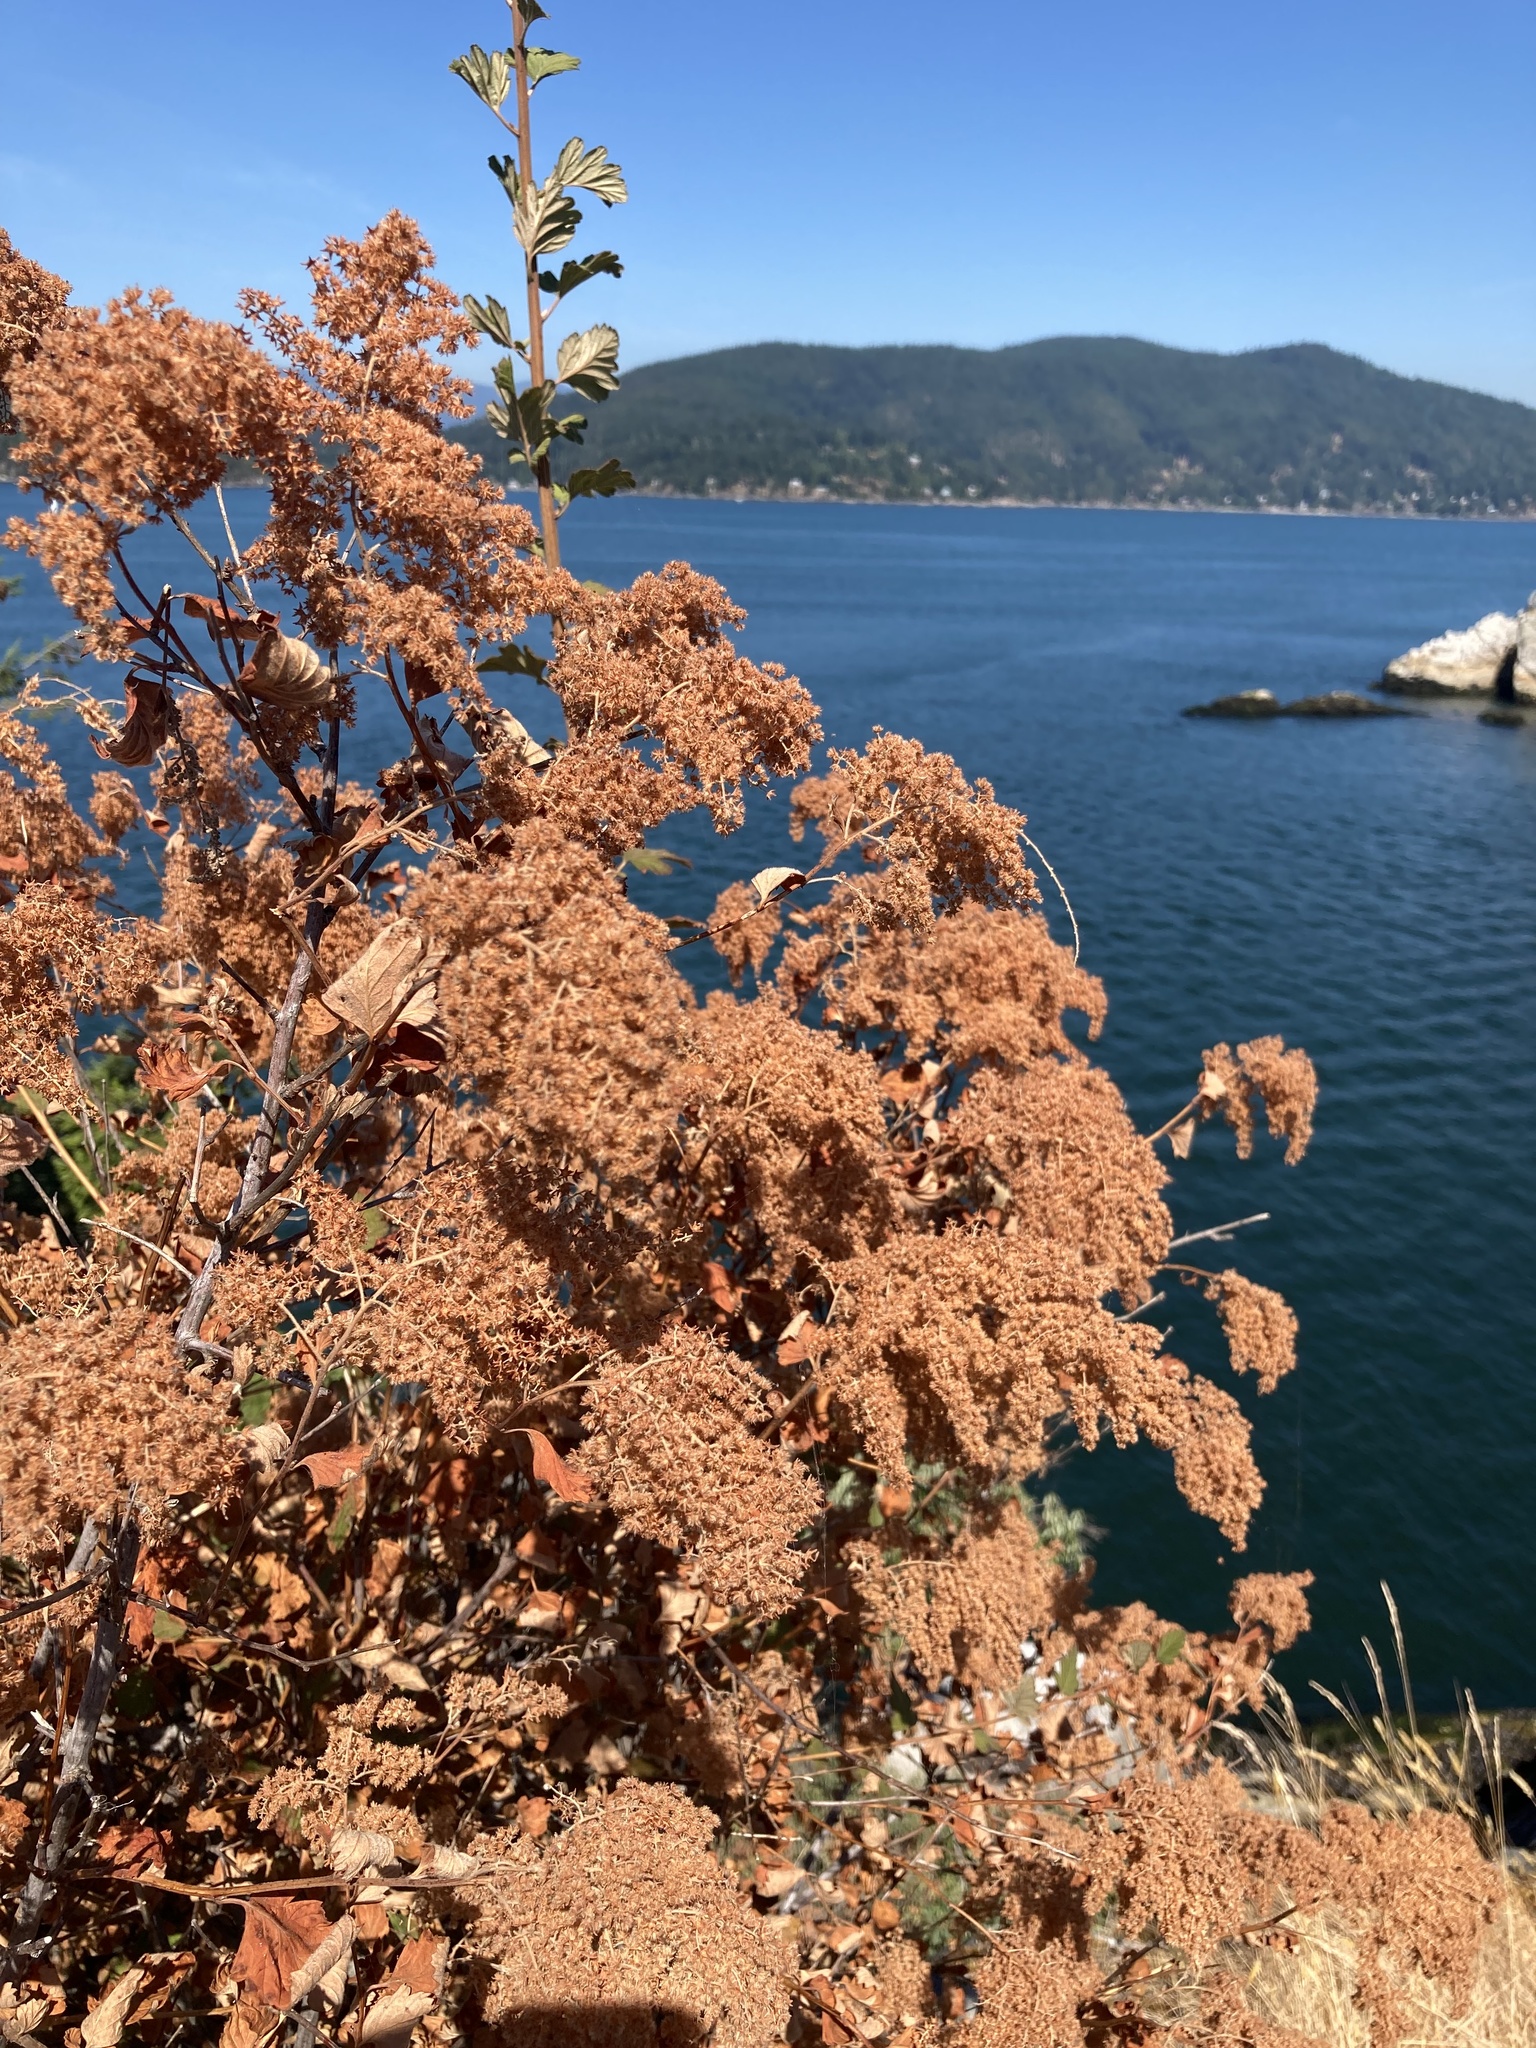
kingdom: Plantae
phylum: Tracheophyta
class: Magnoliopsida
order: Rosales
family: Rosaceae
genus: Holodiscus
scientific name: Holodiscus discolor
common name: Oceanspray
